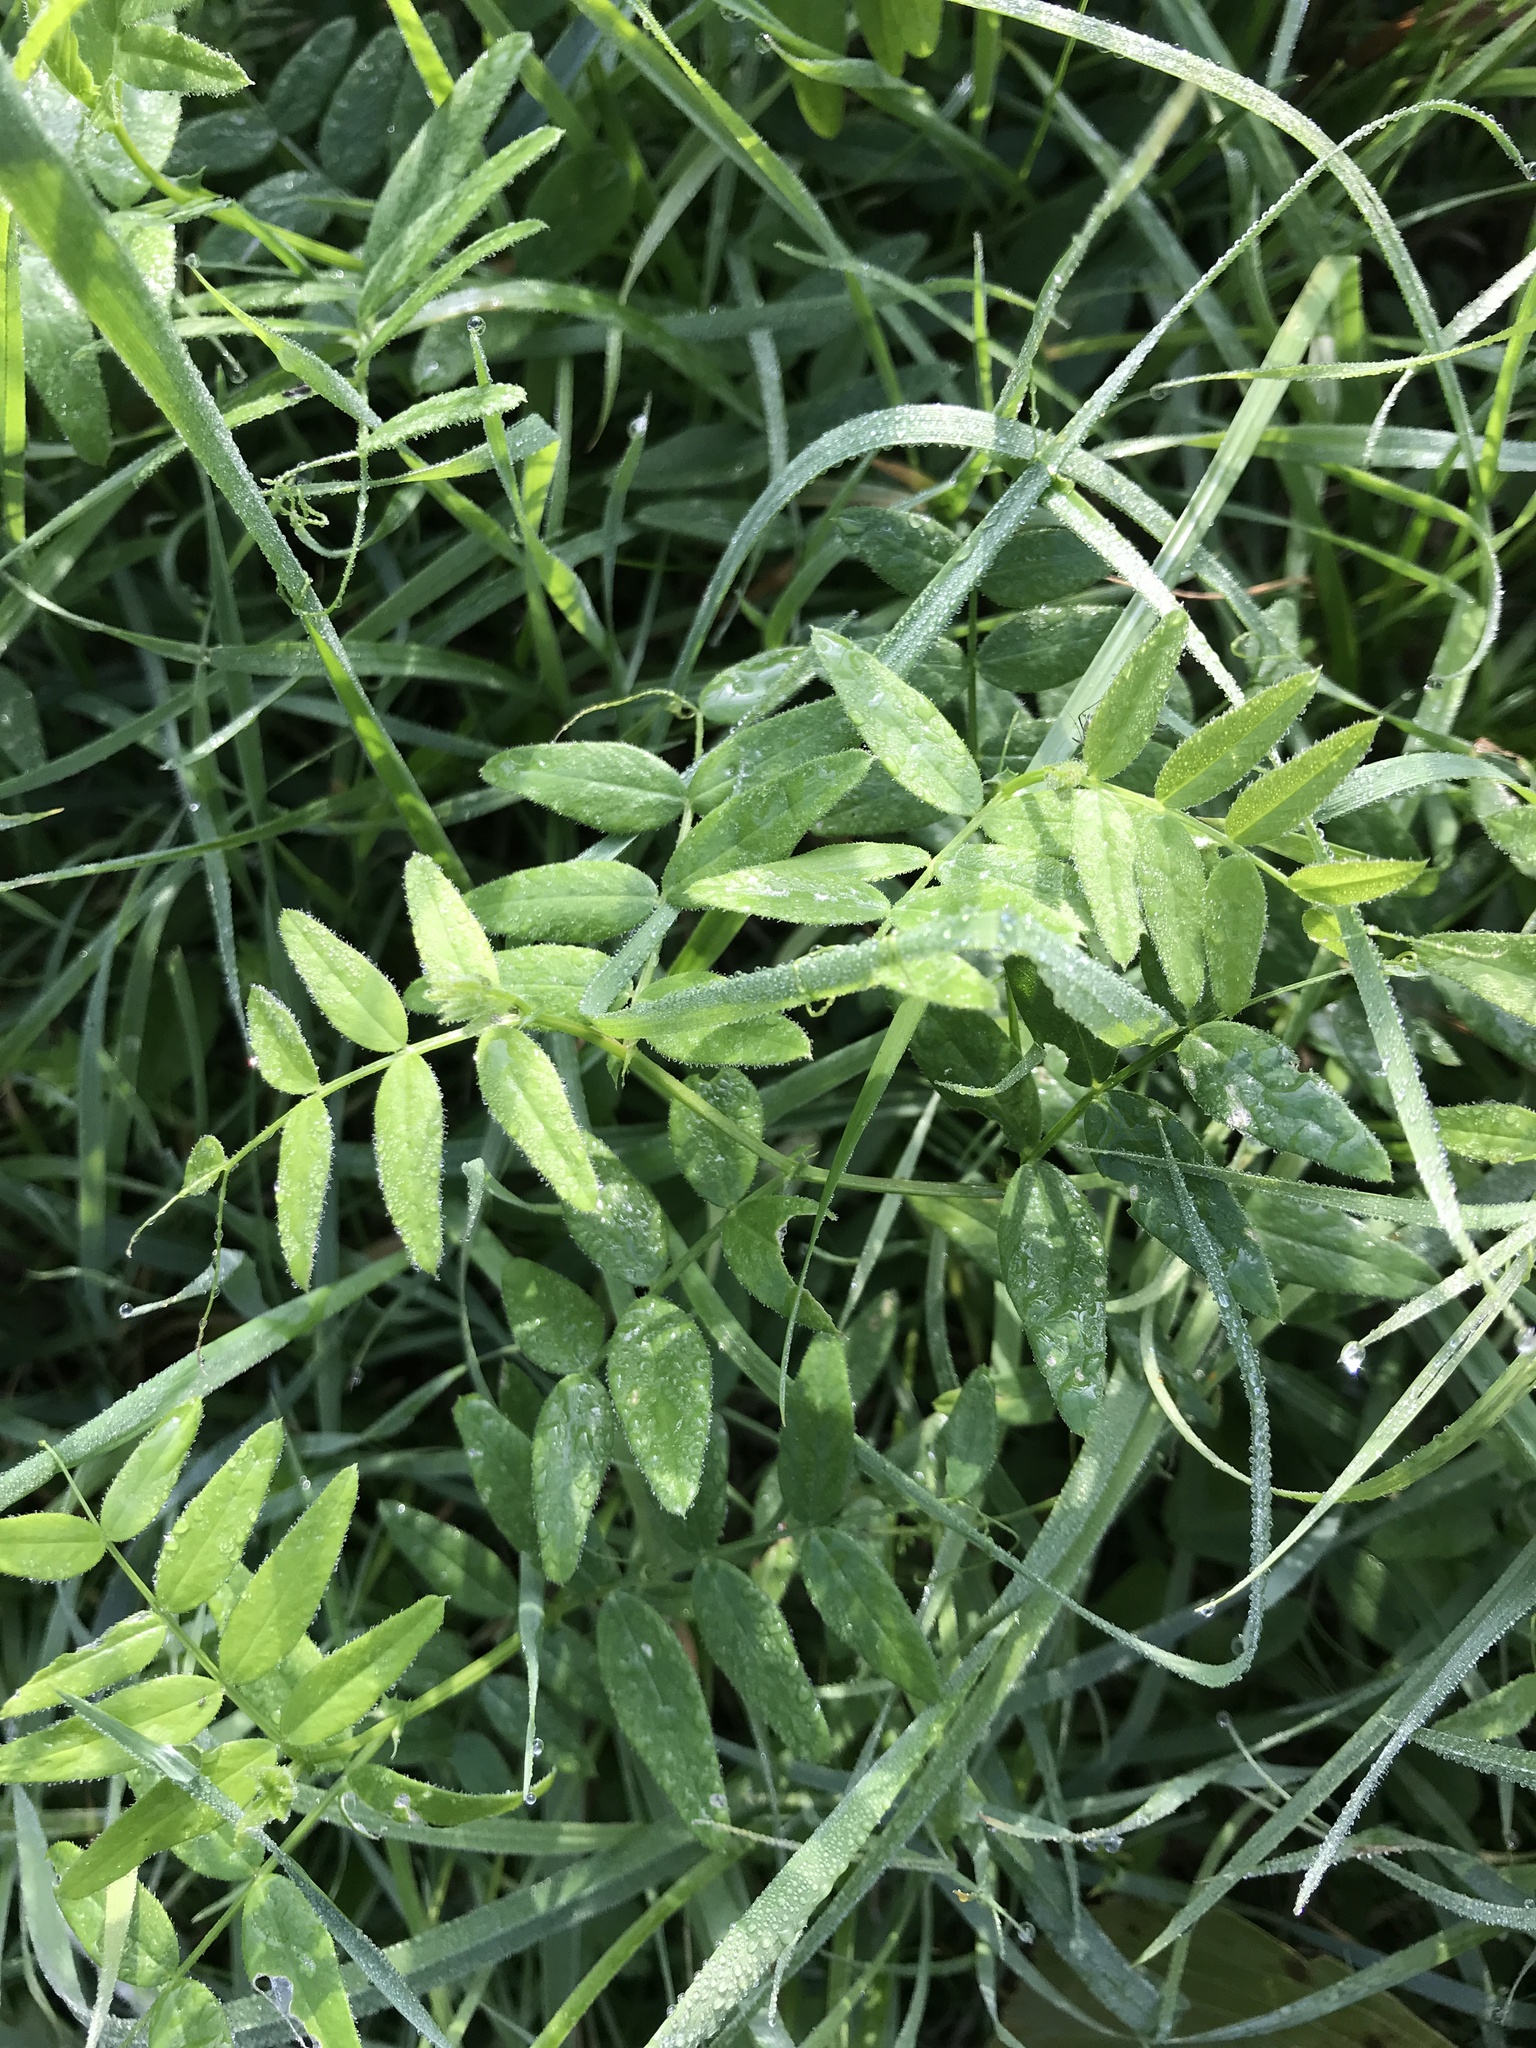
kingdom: Plantae
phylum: Tracheophyta
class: Magnoliopsida
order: Fabales
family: Fabaceae
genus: Vicia
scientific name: Vicia sepium
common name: Bush vetch
